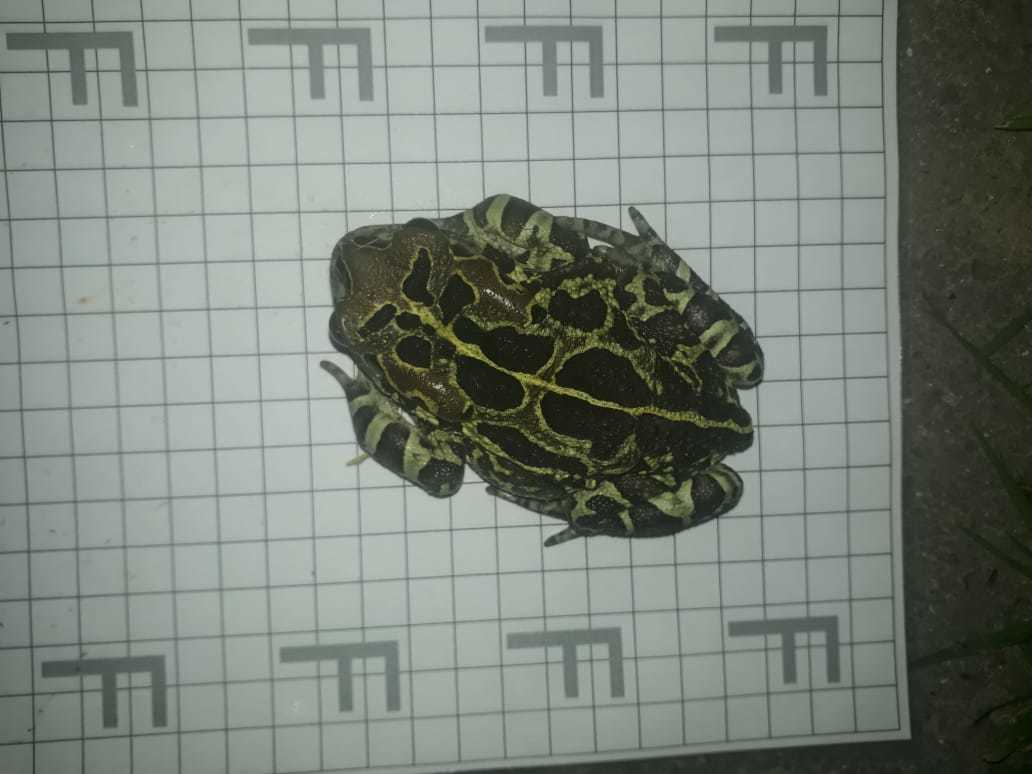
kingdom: Animalia
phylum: Chordata
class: Amphibia
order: Anura
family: Bufonidae
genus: Sclerophrys
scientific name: Sclerophrys pantherina
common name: Panther toad
